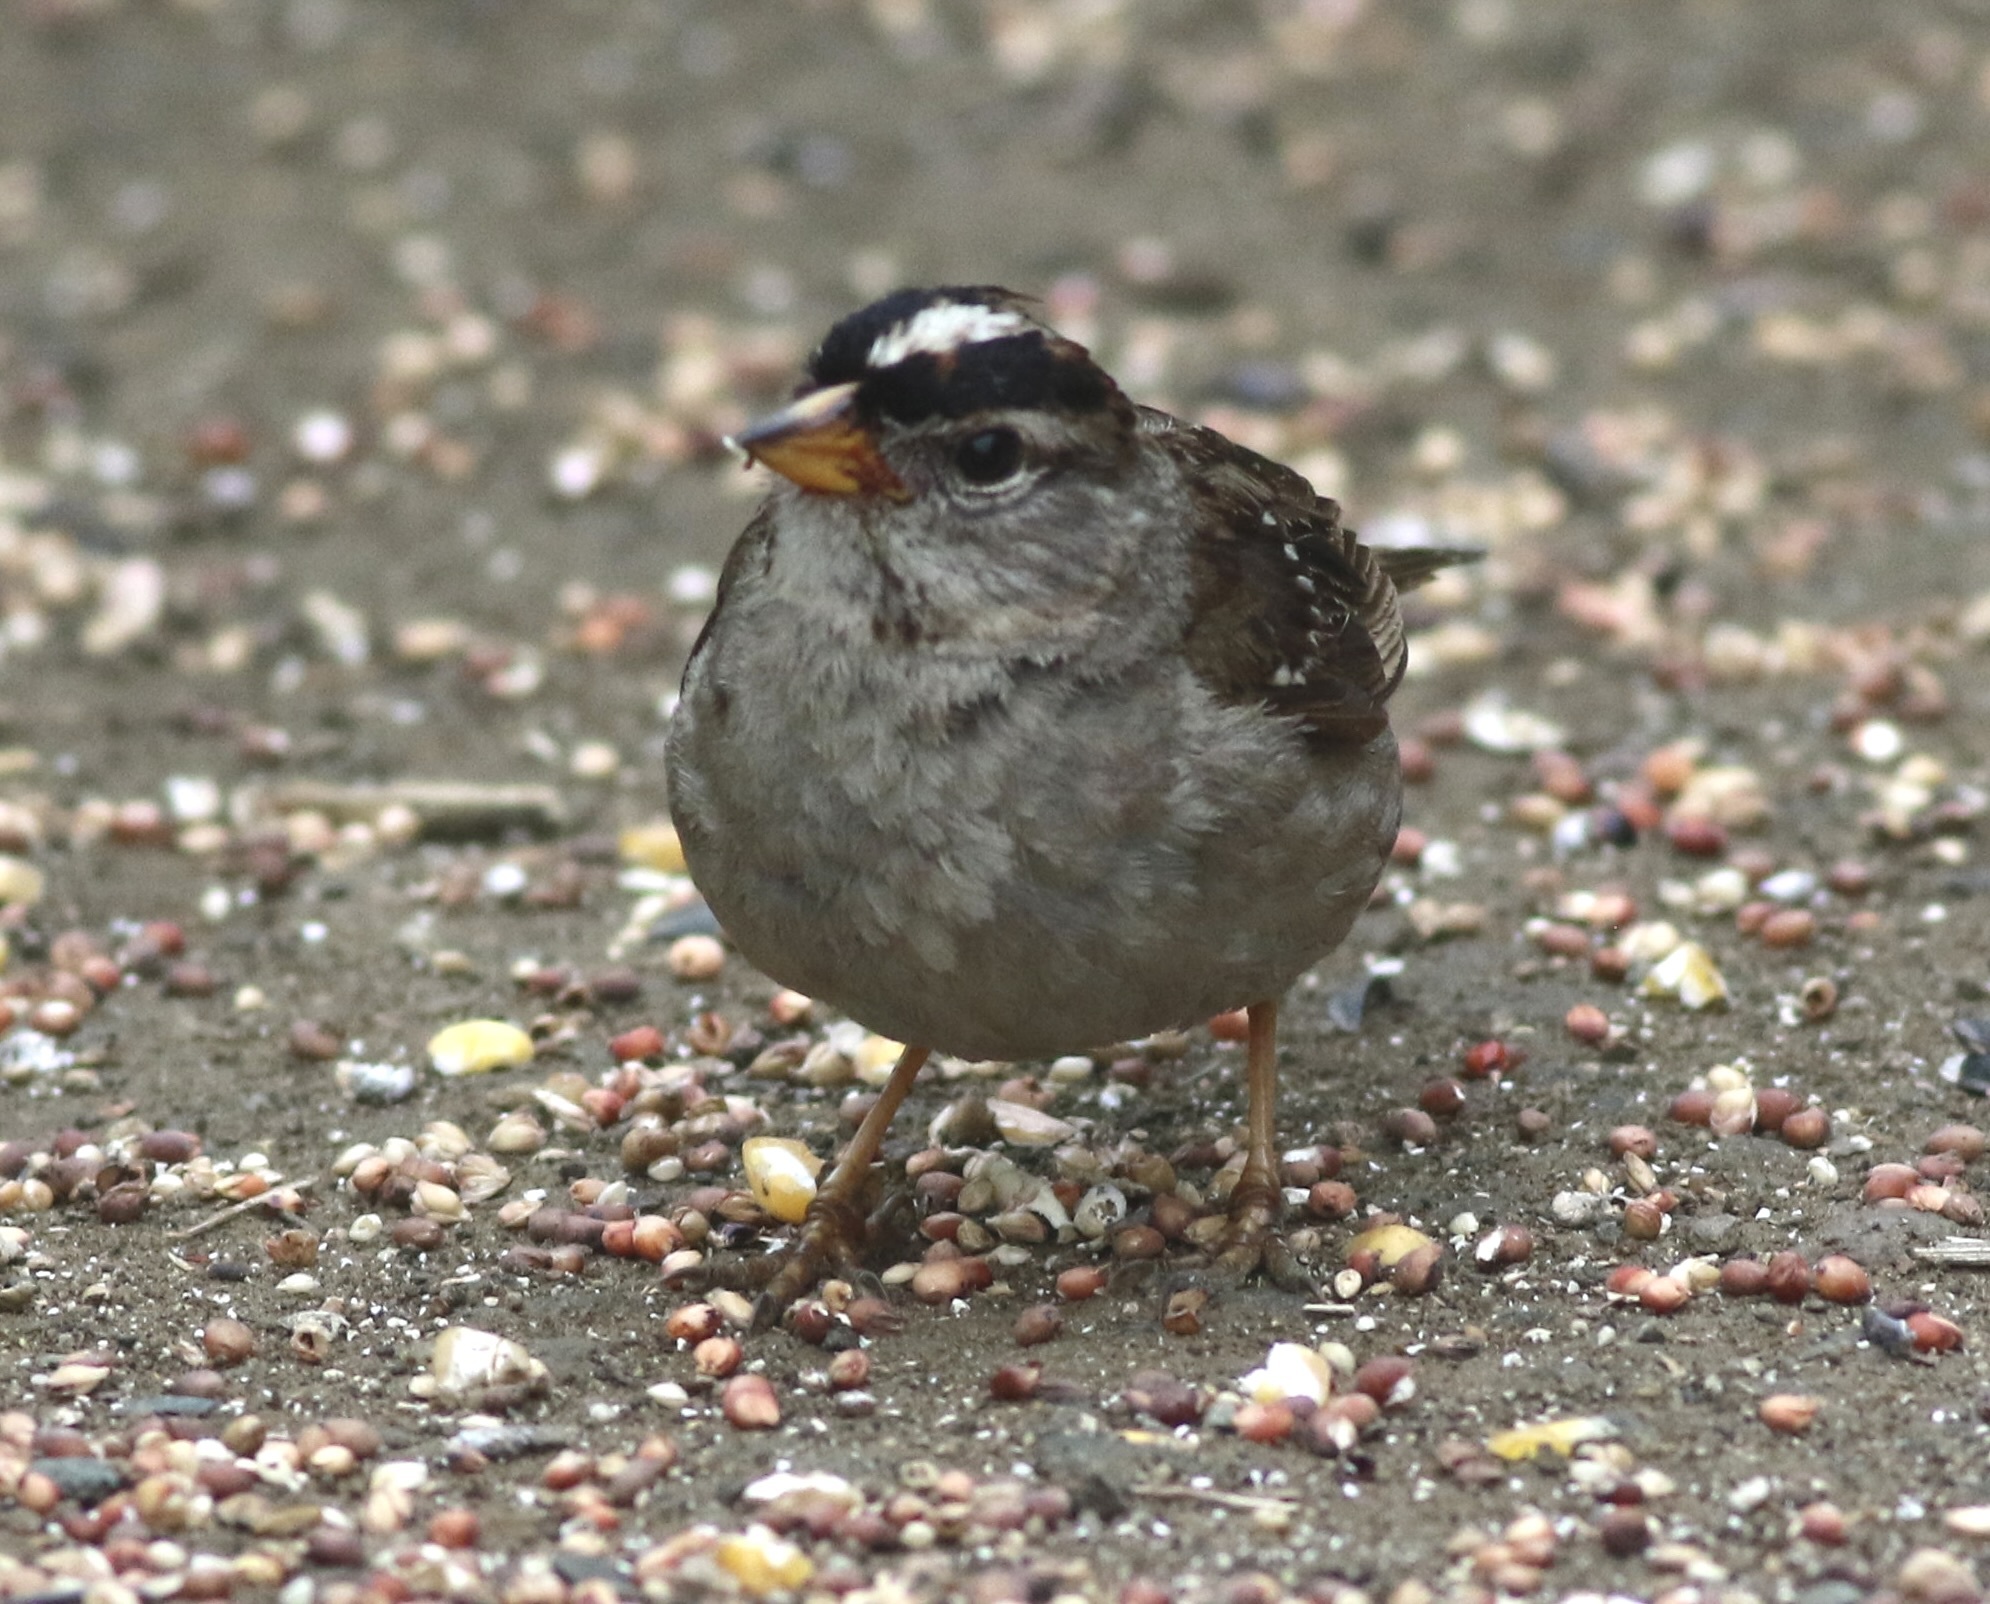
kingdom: Animalia
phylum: Chordata
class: Aves
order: Passeriformes
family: Passerellidae
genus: Zonotrichia
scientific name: Zonotrichia leucophrys
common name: White-crowned sparrow
